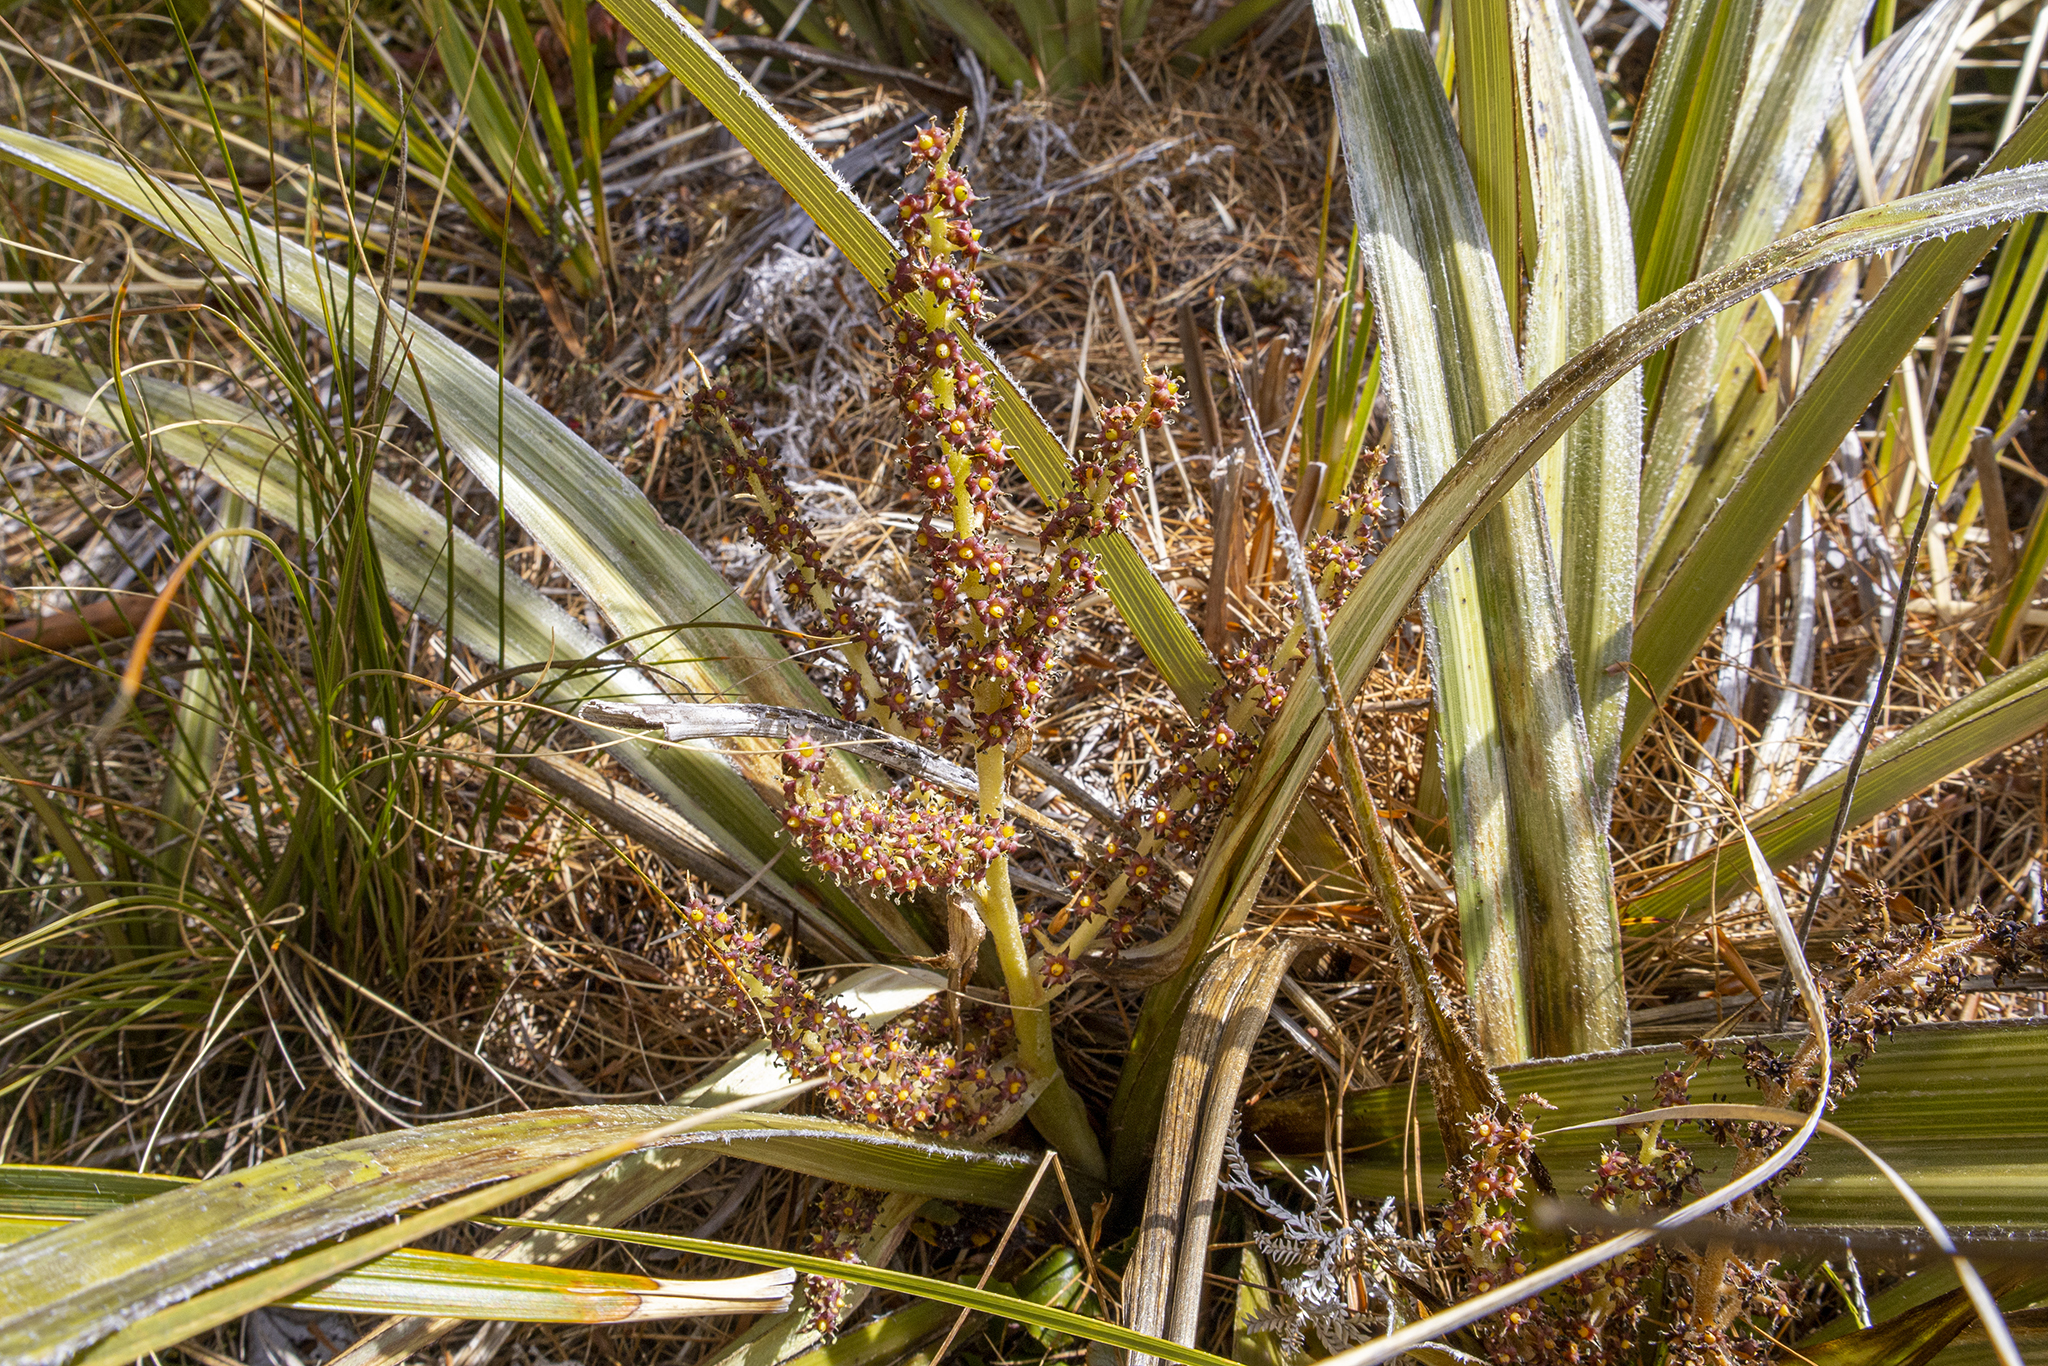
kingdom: Plantae
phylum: Tracheophyta
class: Liliopsida
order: Asparagales
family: Asteliaceae
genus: Astelia
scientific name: Astelia nervosa
